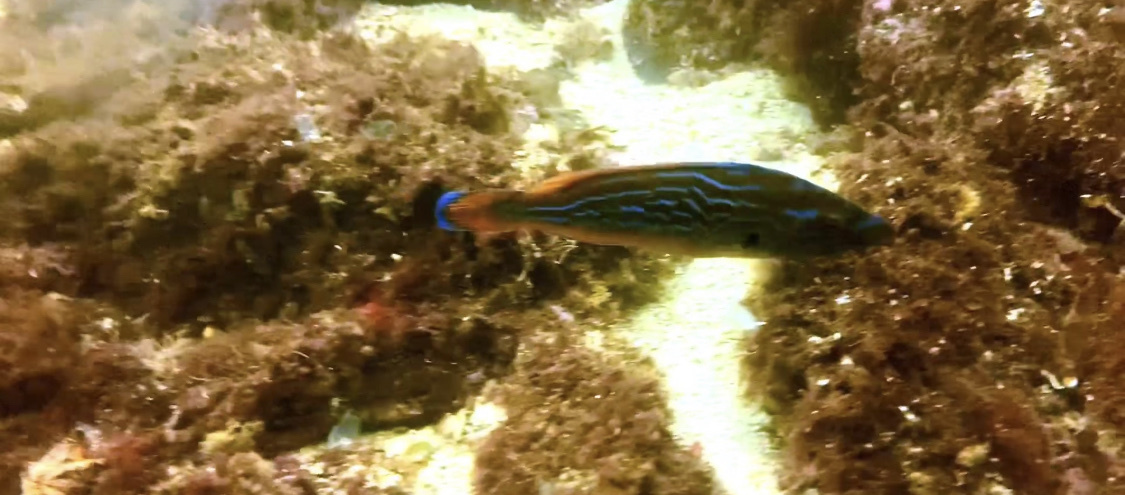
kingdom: Animalia
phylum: Chordata
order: Perciformes
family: Labridae
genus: Labrus
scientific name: Labrus mixtus
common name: Cuckoo wrasse
